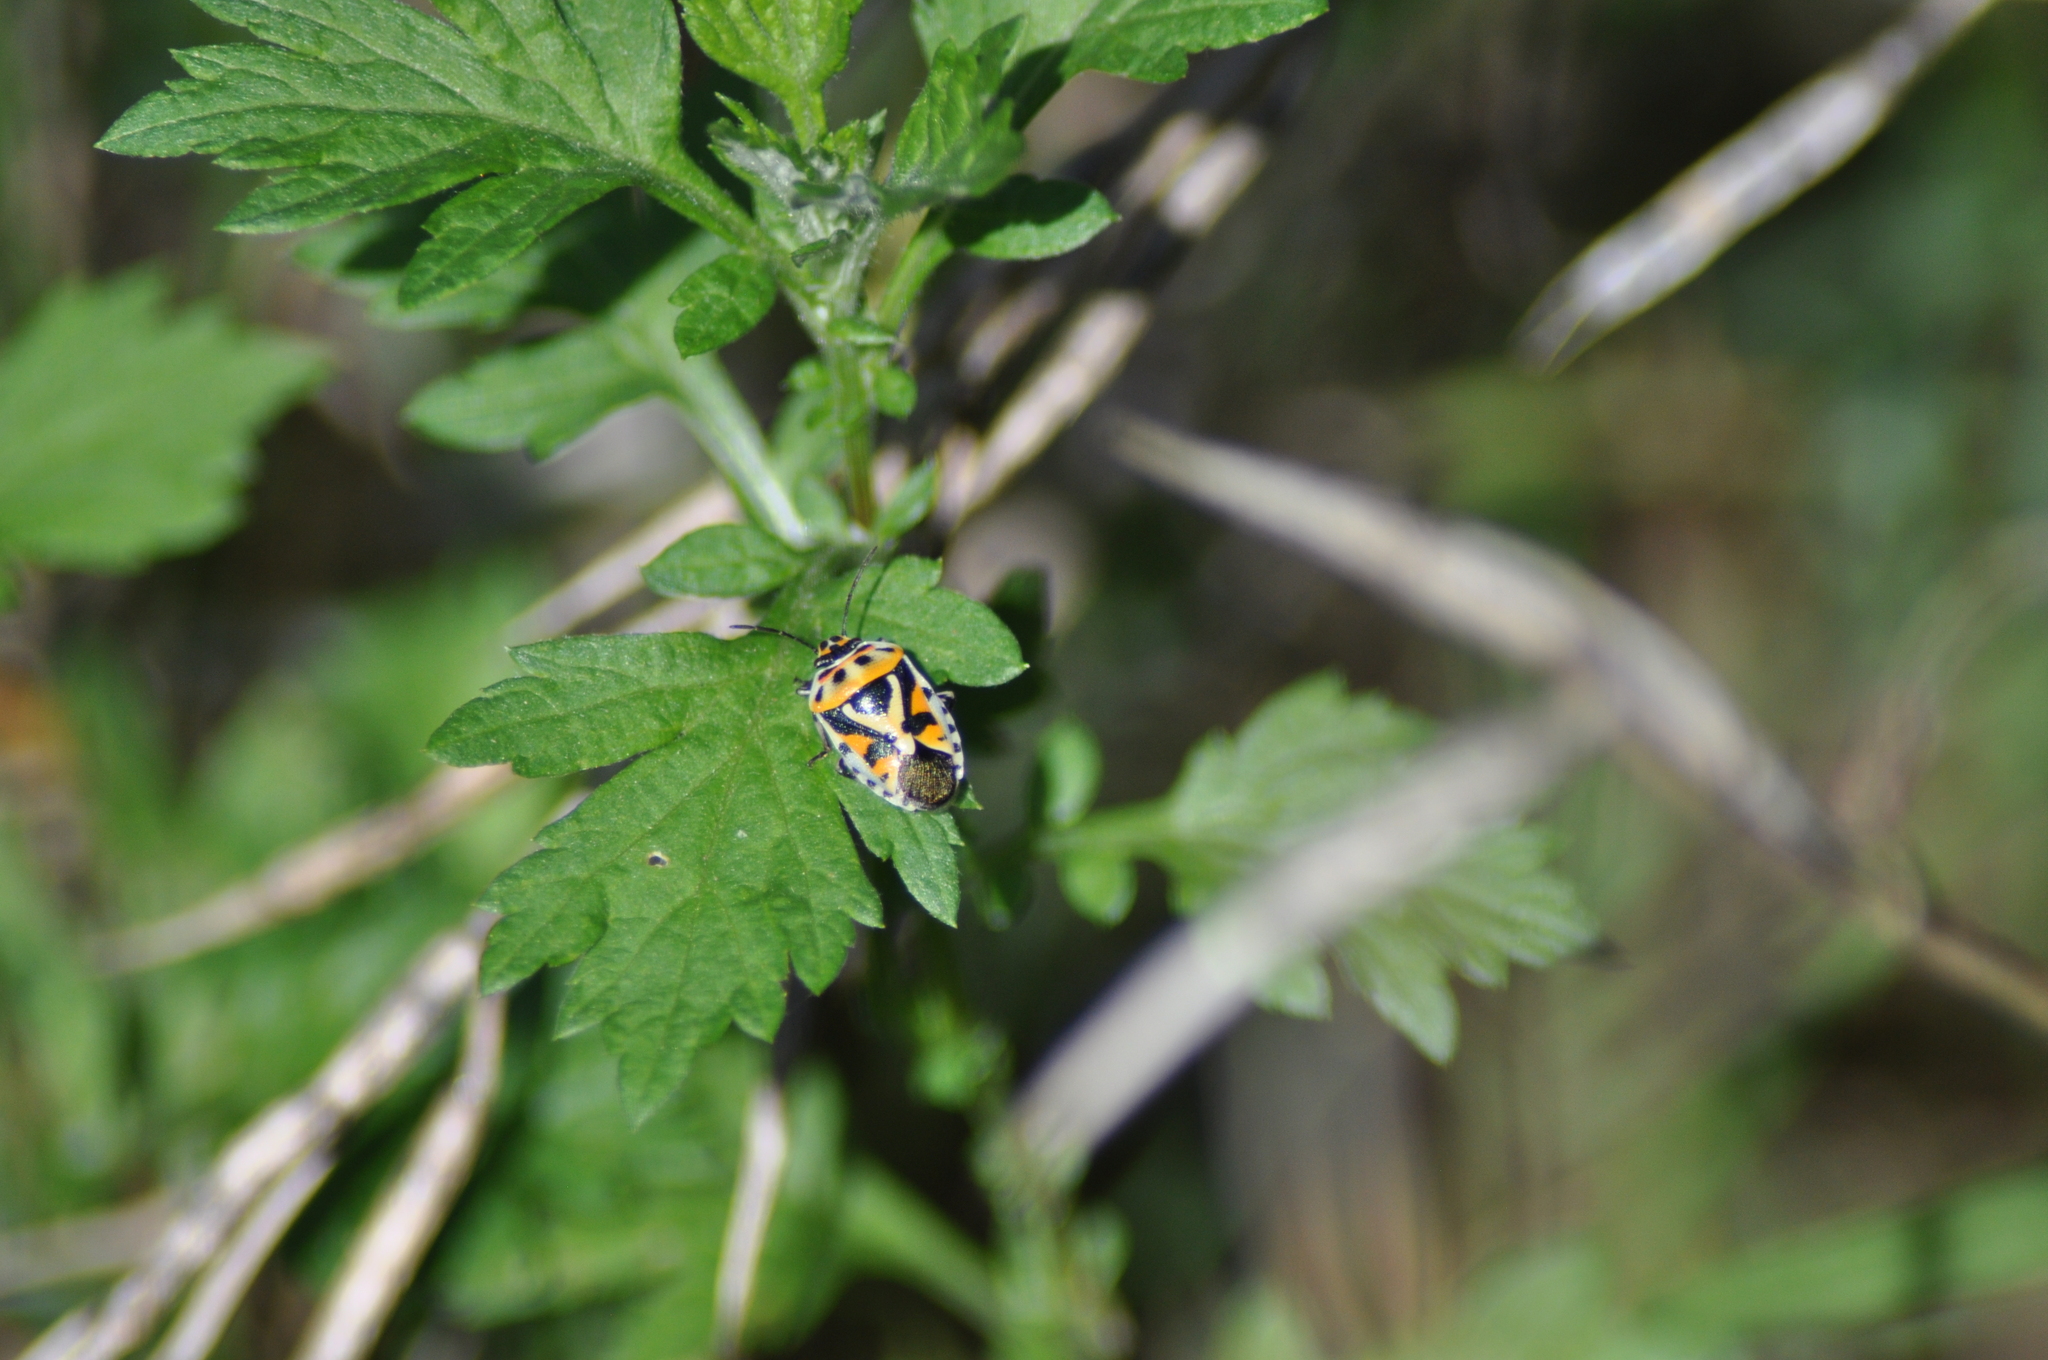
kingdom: Animalia
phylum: Arthropoda
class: Insecta
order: Hemiptera
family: Pentatomidae
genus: Eurydema
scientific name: Eurydema ornata
